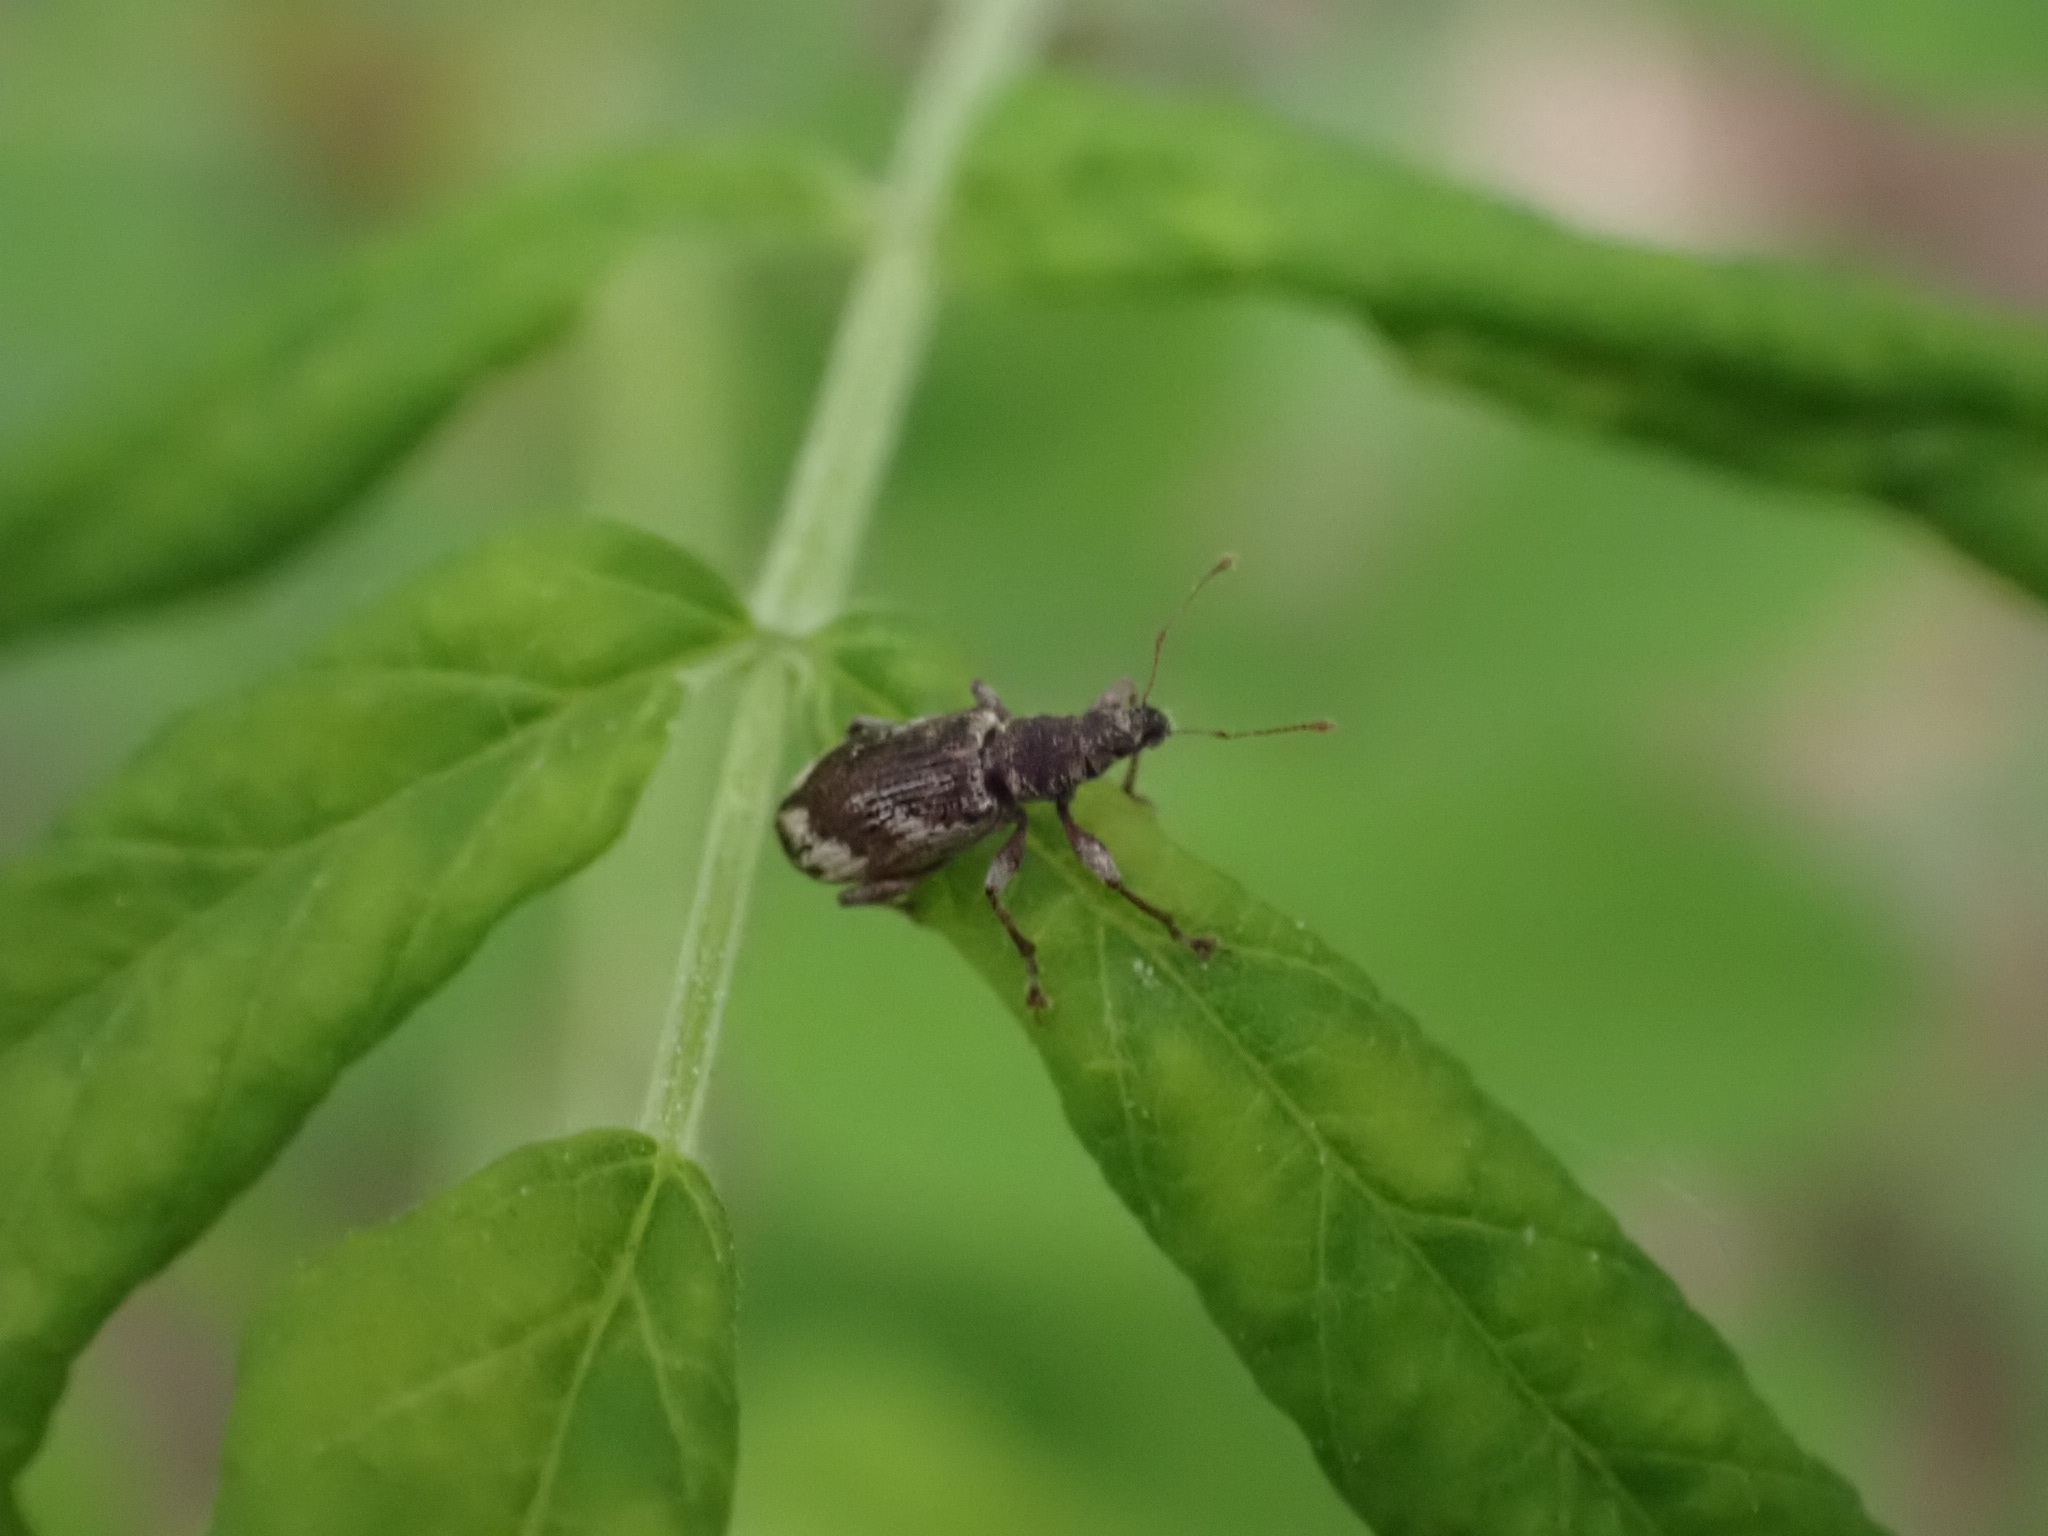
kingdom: Animalia
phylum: Arthropoda
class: Insecta
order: Coleoptera
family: Curculionidae
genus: Polydrusus
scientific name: Polydrusus tereticollis
